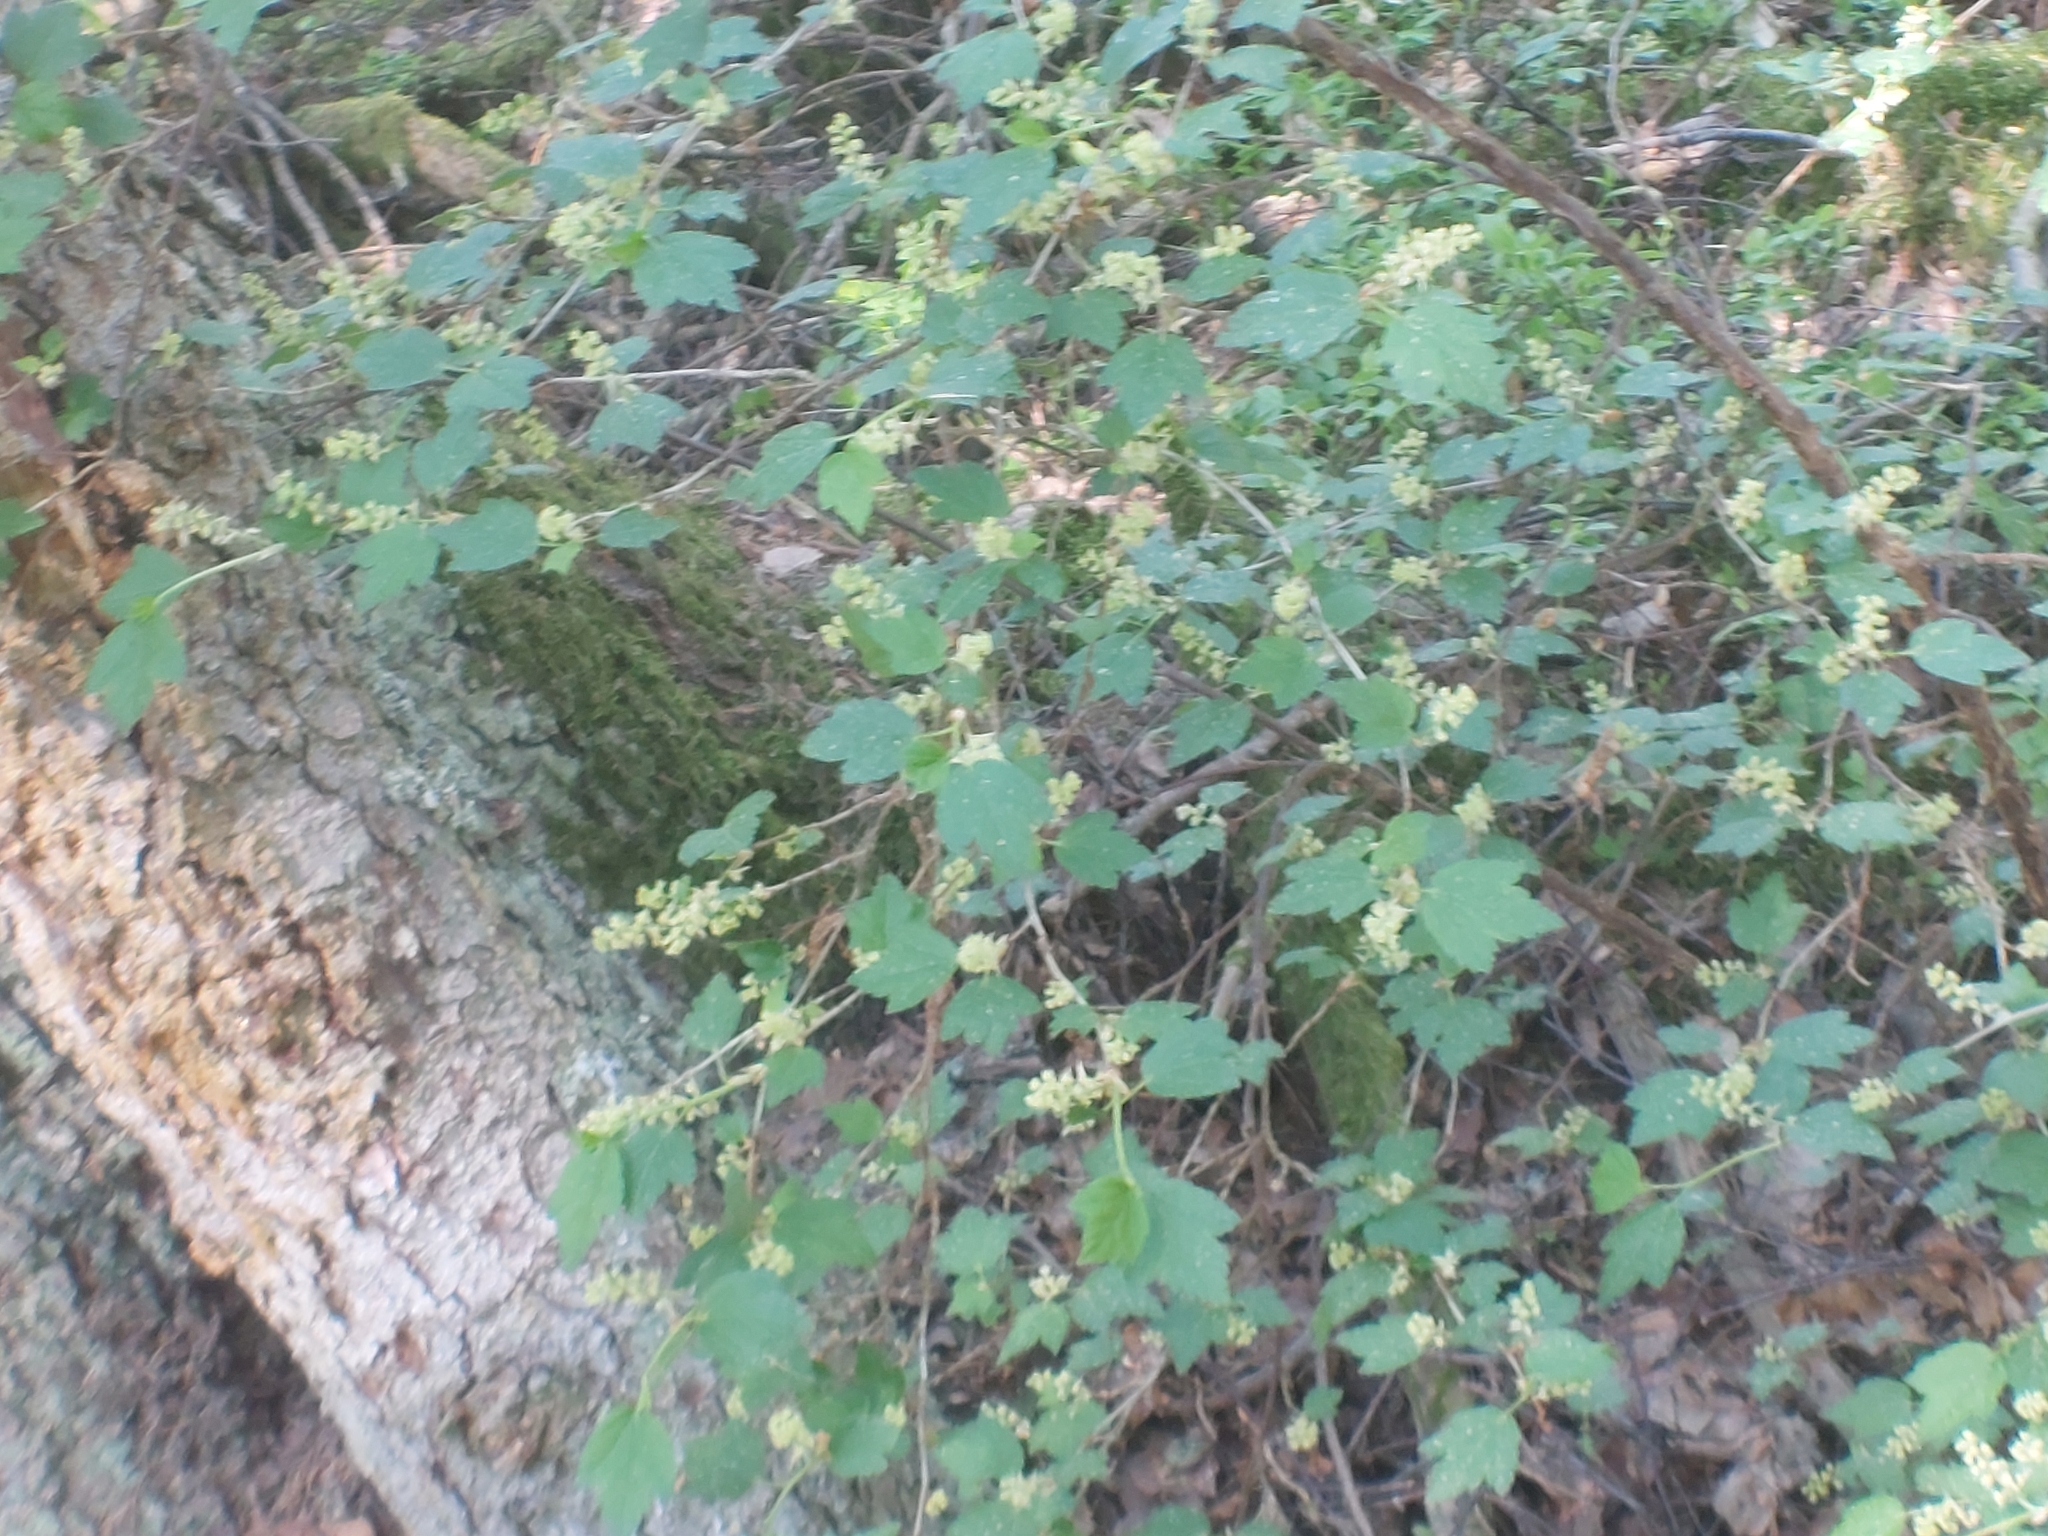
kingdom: Plantae
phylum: Tracheophyta
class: Magnoliopsida
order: Saxifragales
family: Grossulariaceae
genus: Ribes
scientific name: Ribes alpinum
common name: Alpine currant
